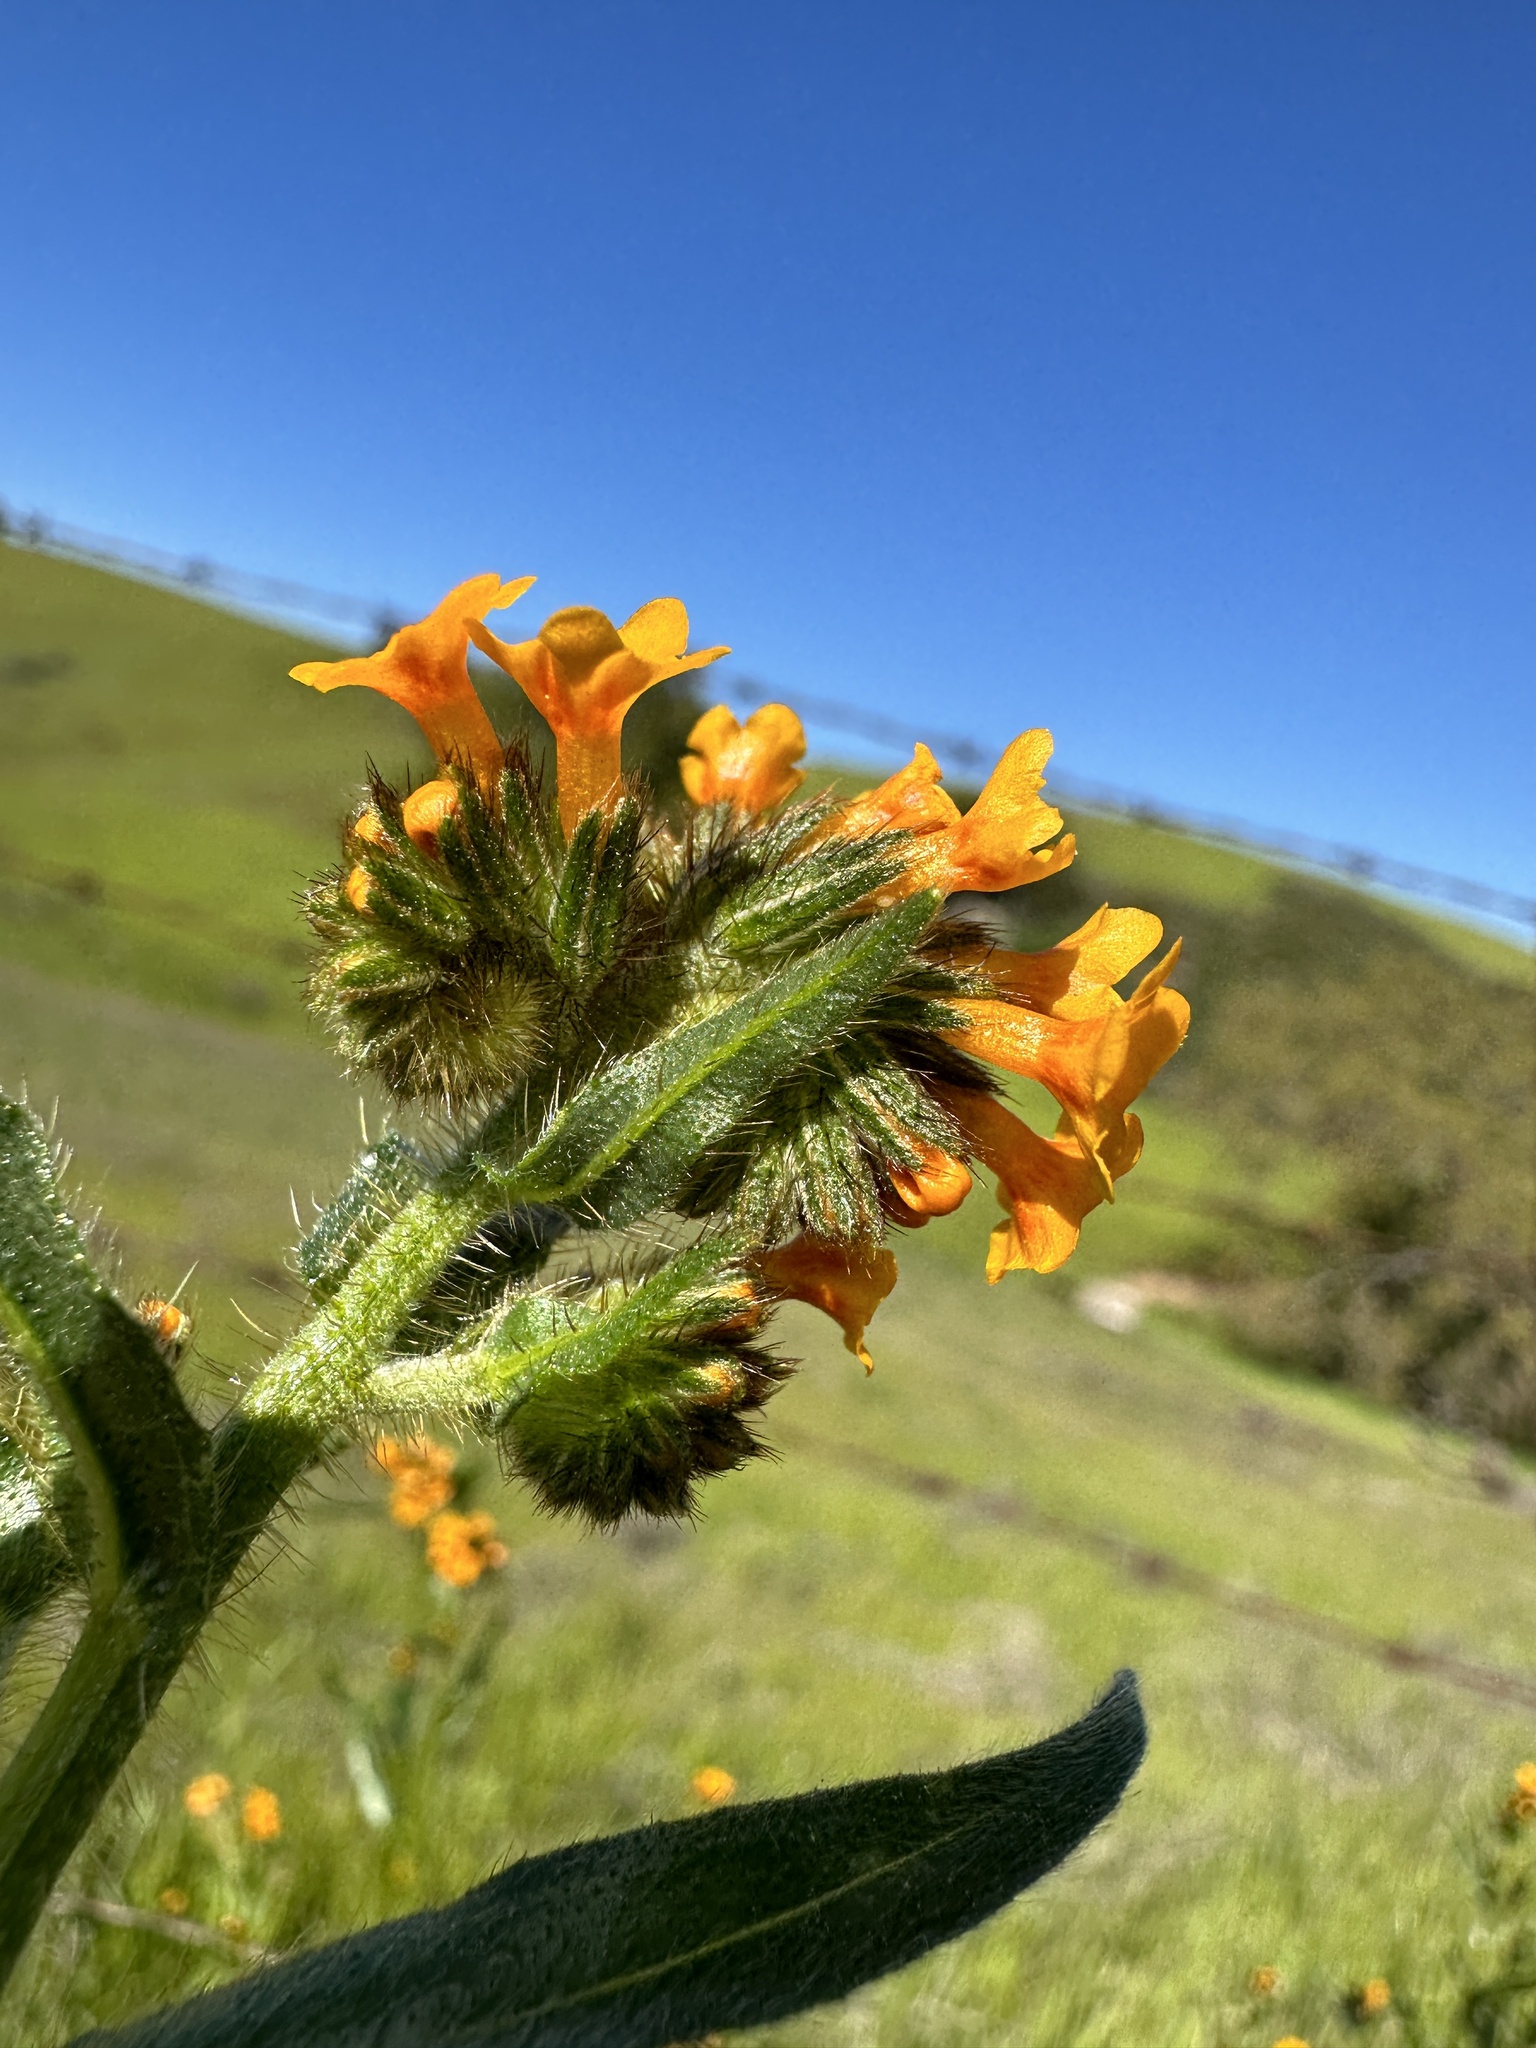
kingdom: Plantae
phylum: Tracheophyta
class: Magnoliopsida
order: Boraginales
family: Boraginaceae
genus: Amsinckia
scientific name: Amsinckia menziesii
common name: Menzies' fiddleneck
